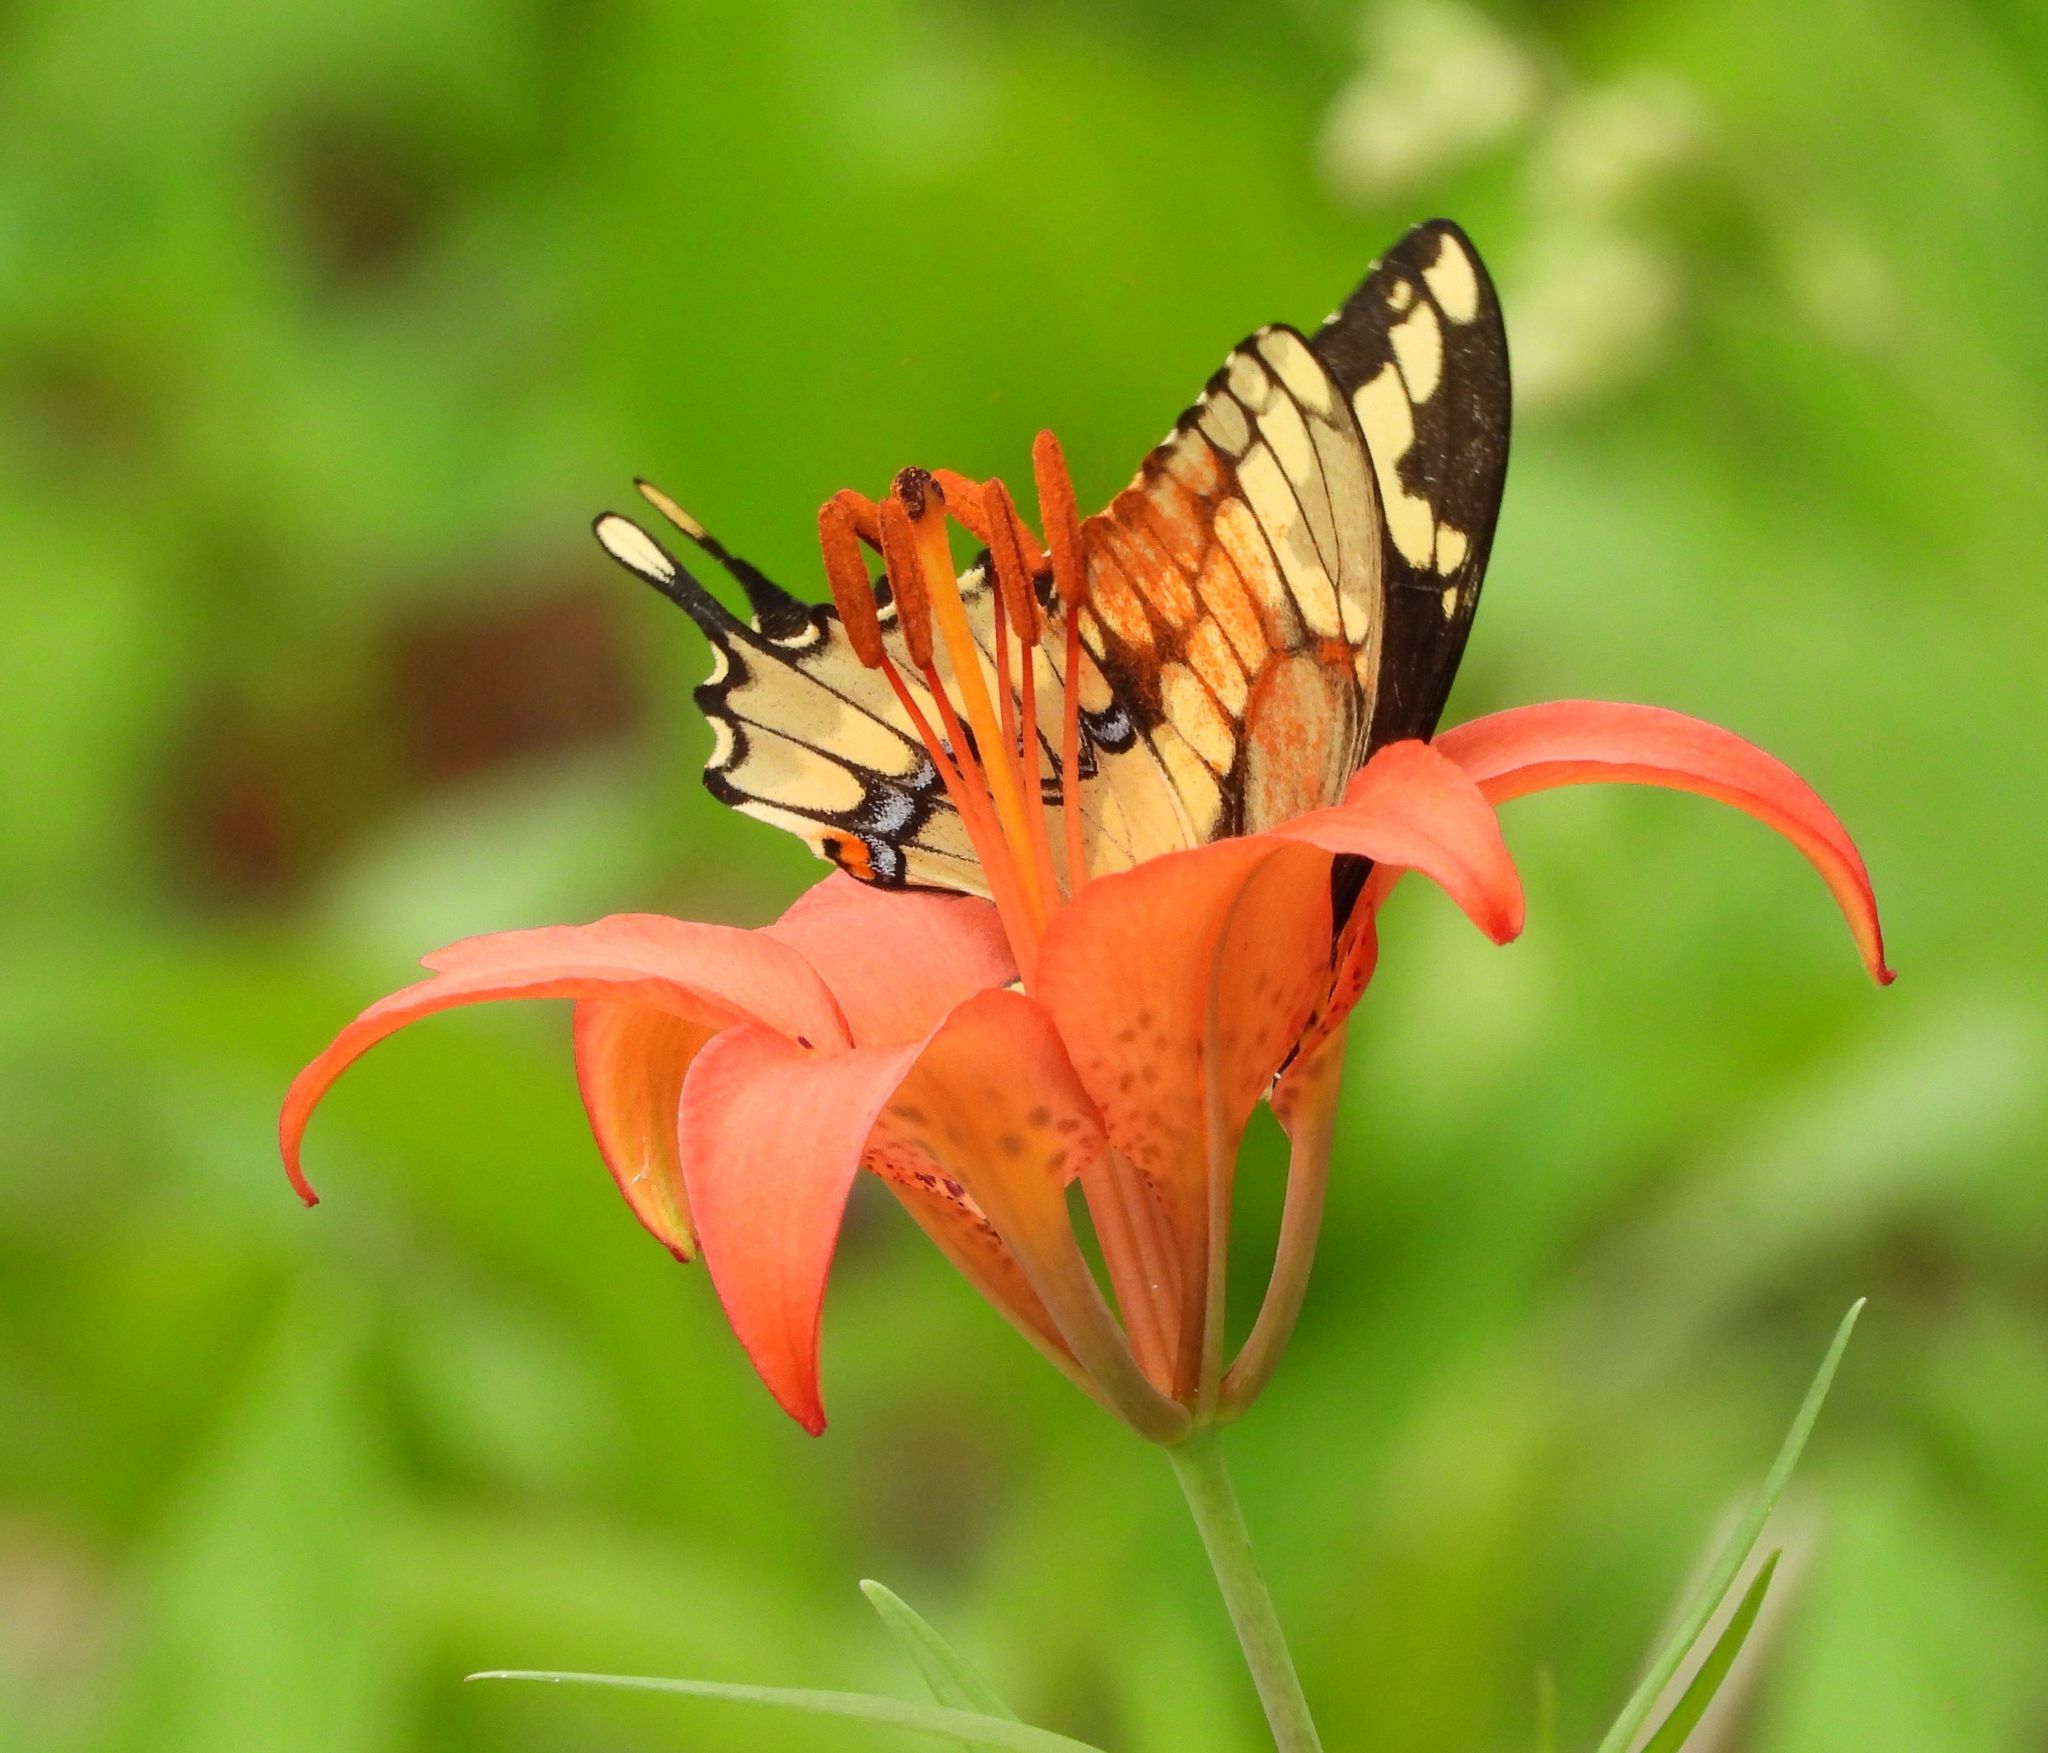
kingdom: Animalia
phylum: Arthropoda
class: Insecta
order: Lepidoptera
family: Papilionidae
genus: Papilio
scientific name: Papilio cresphontes
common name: Giant swallowtail
